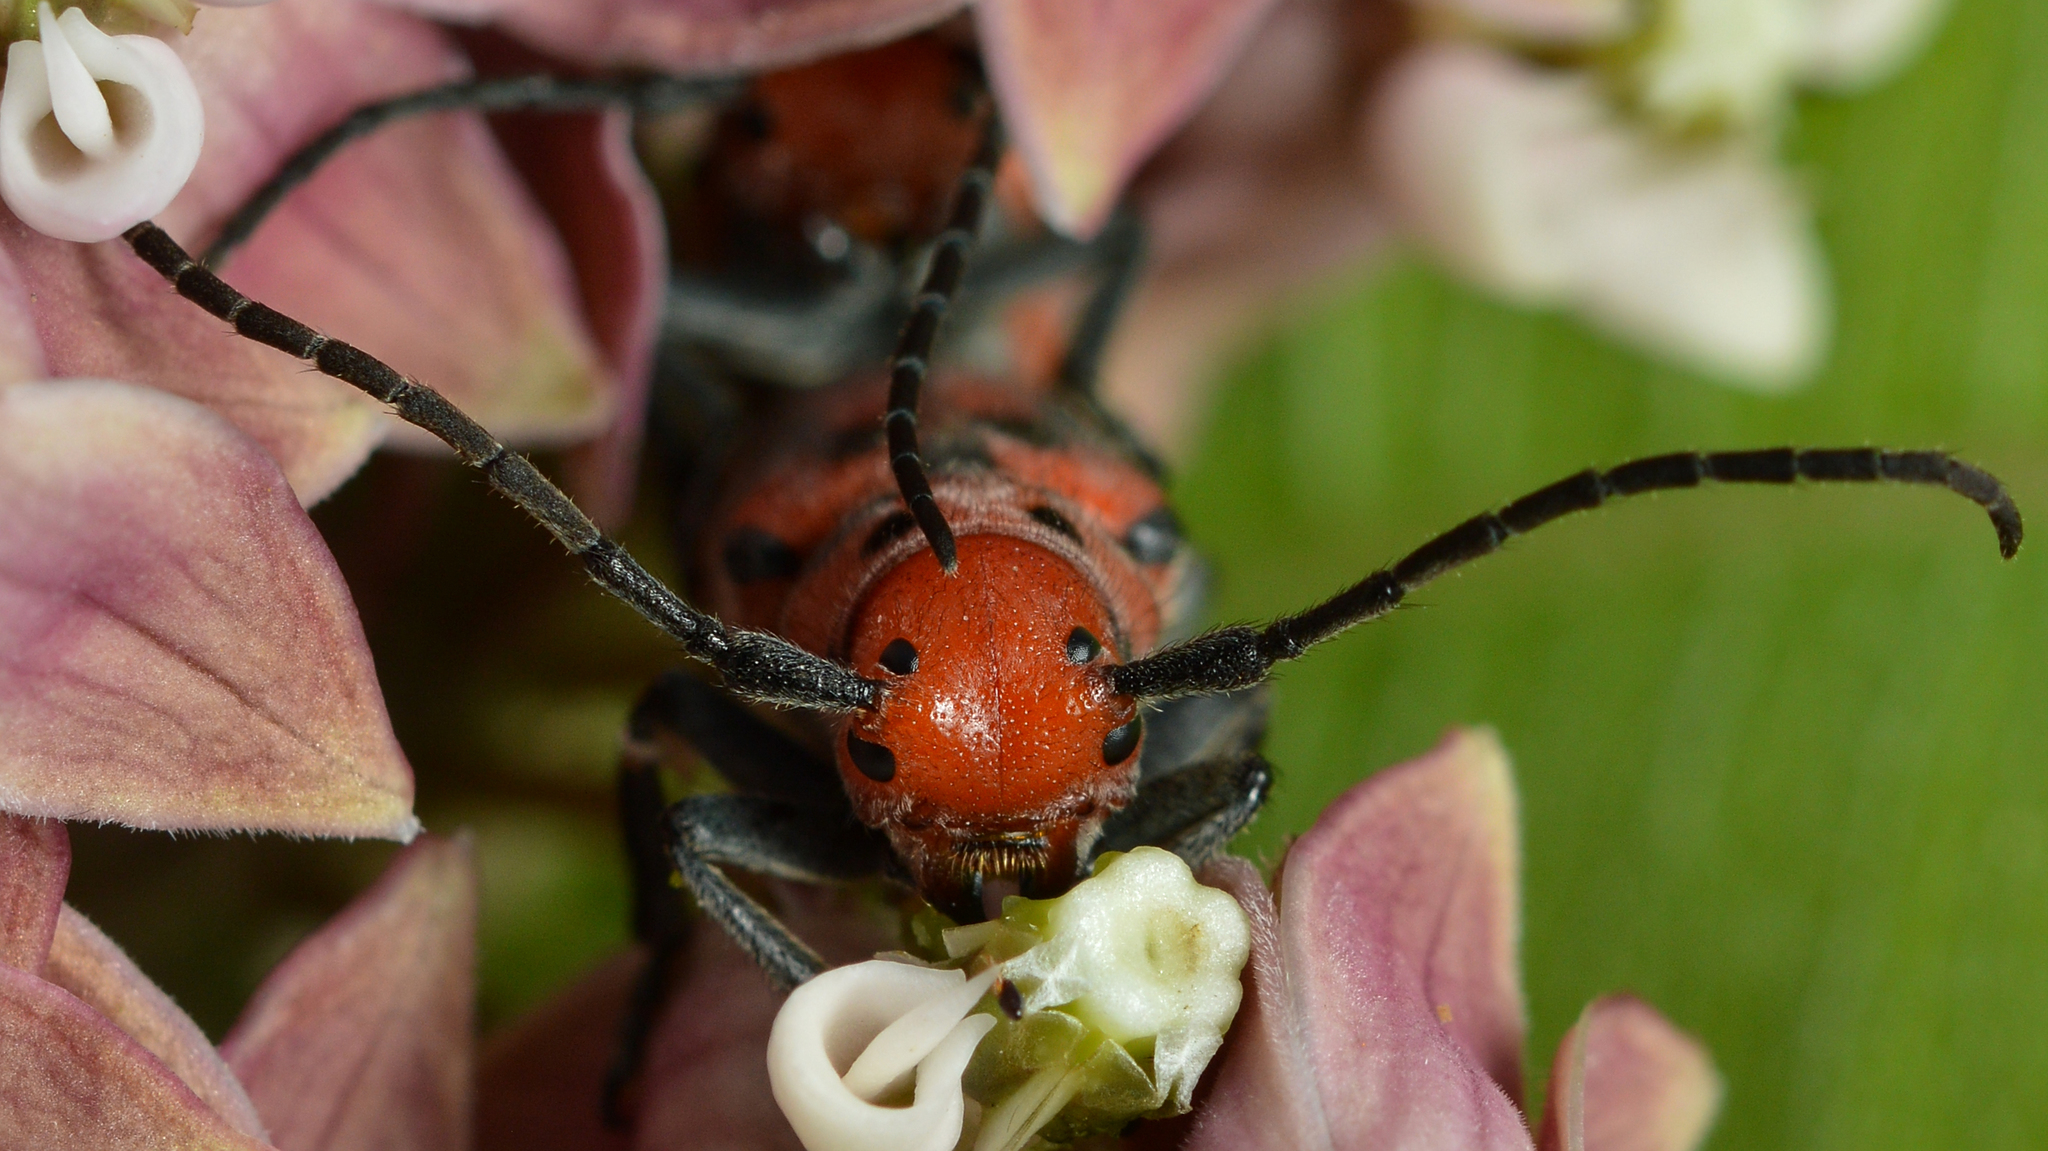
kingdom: Animalia
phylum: Arthropoda
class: Insecta
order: Coleoptera
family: Cerambycidae
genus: Tetraopes
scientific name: Tetraopes tetrophthalmus
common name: Red milkweed beetle
